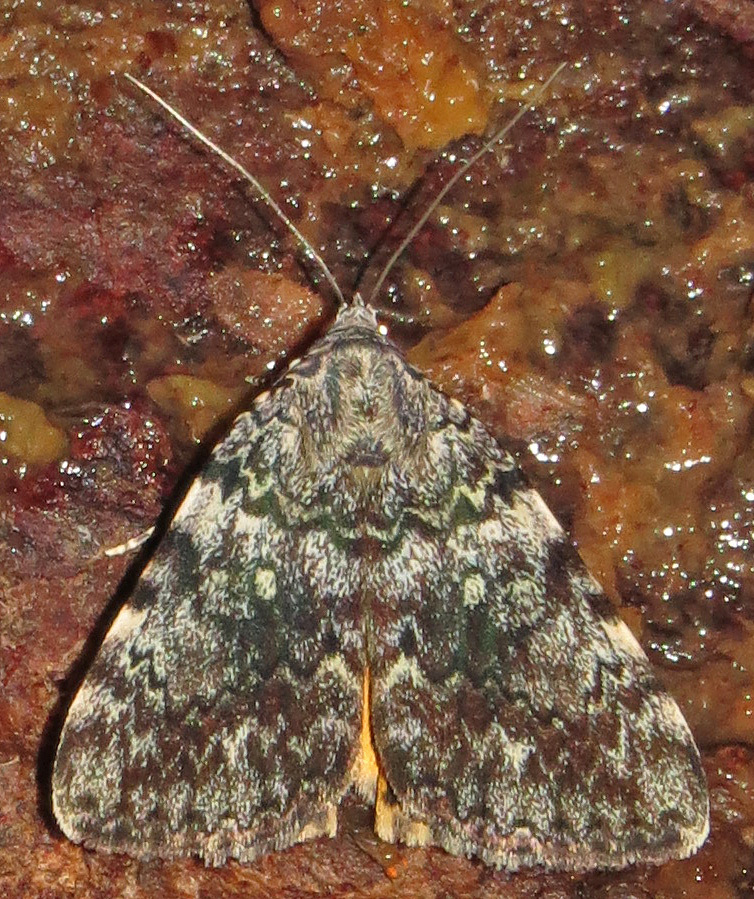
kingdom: Animalia
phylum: Arthropoda
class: Insecta
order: Lepidoptera
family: Erebidae
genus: Catocala
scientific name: Catocala lineella
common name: Little lined underwing
